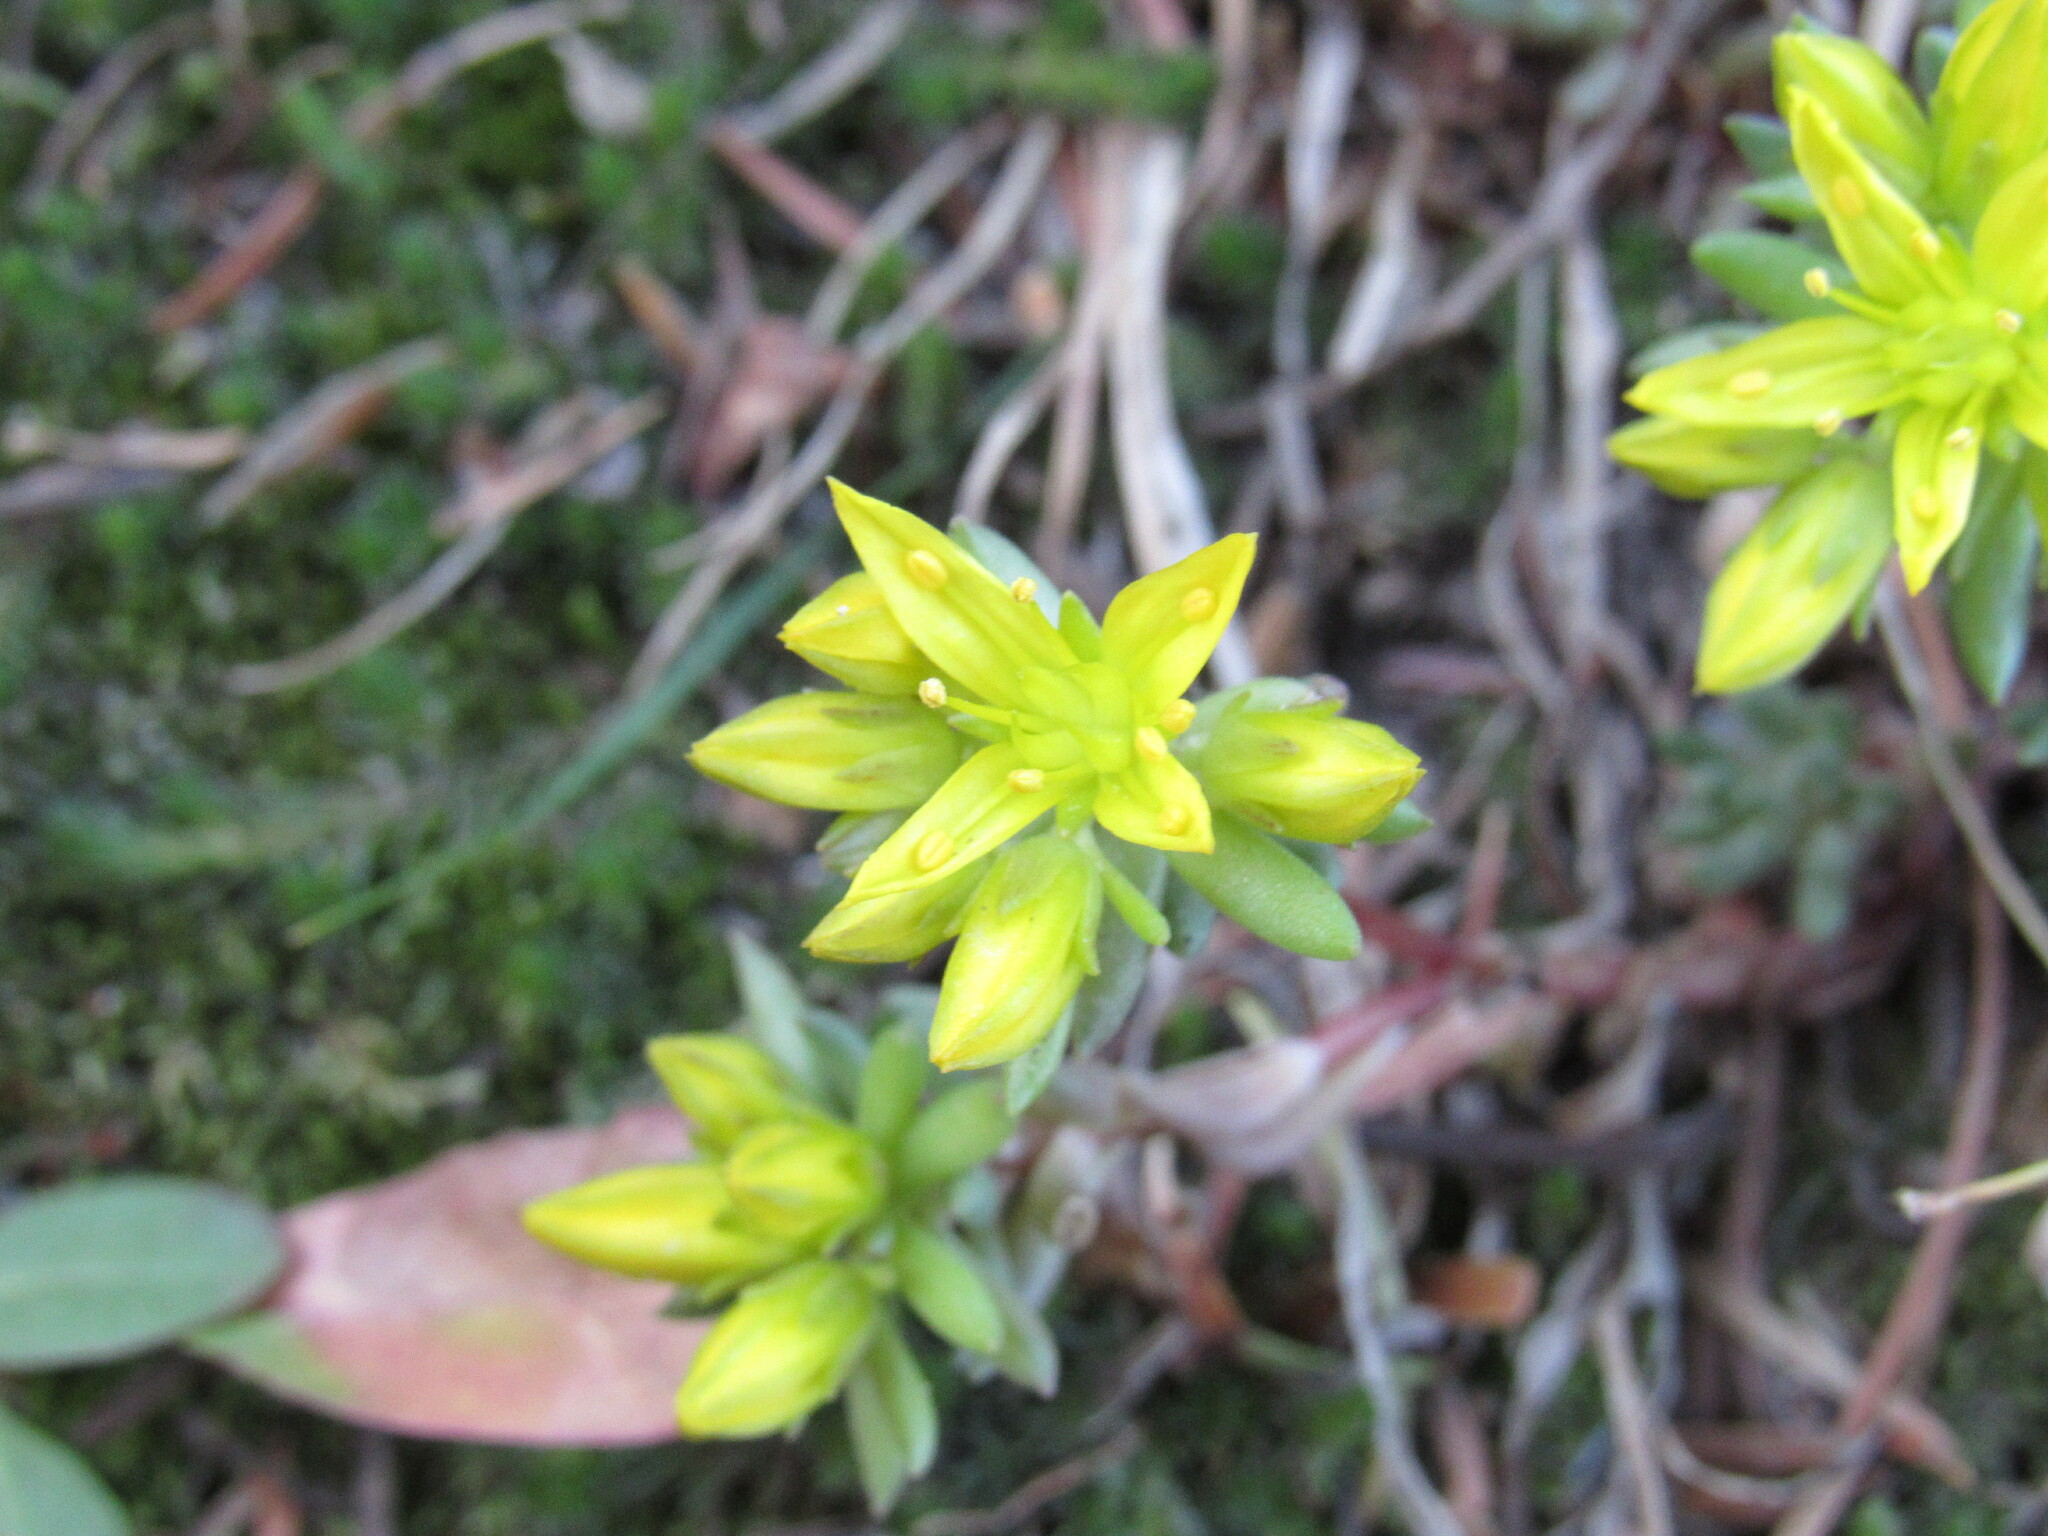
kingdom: Plantae
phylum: Tracheophyta
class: Magnoliopsida
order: Saxifragales
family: Crassulaceae
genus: Sedum
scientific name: Sedum lanceolatum
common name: Common stonecrop
